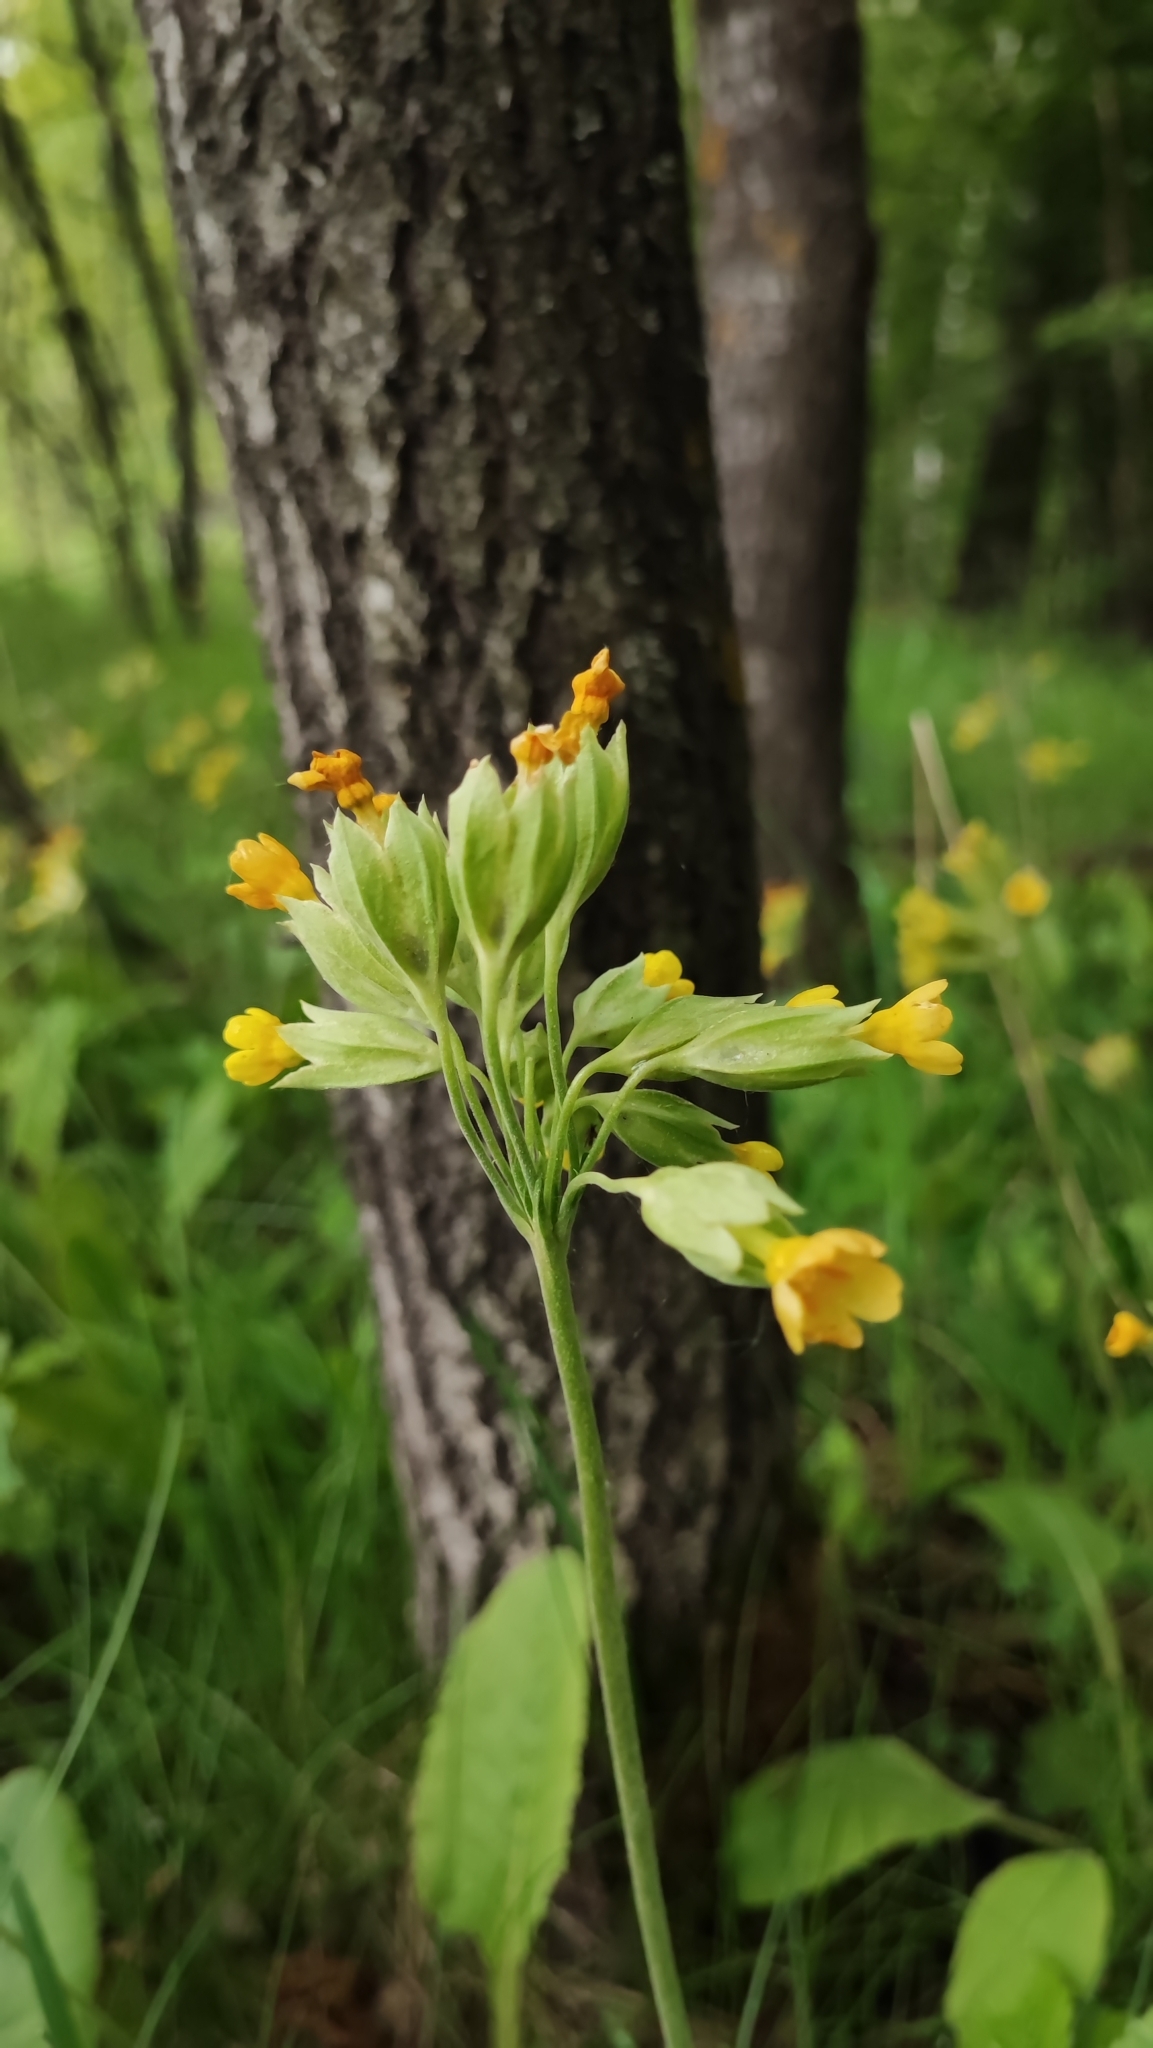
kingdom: Plantae
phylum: Tracheophyta
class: Magnoliopsida
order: Ericales
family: Primulaceae
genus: Primula
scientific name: Primula veris
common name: Cowslip
